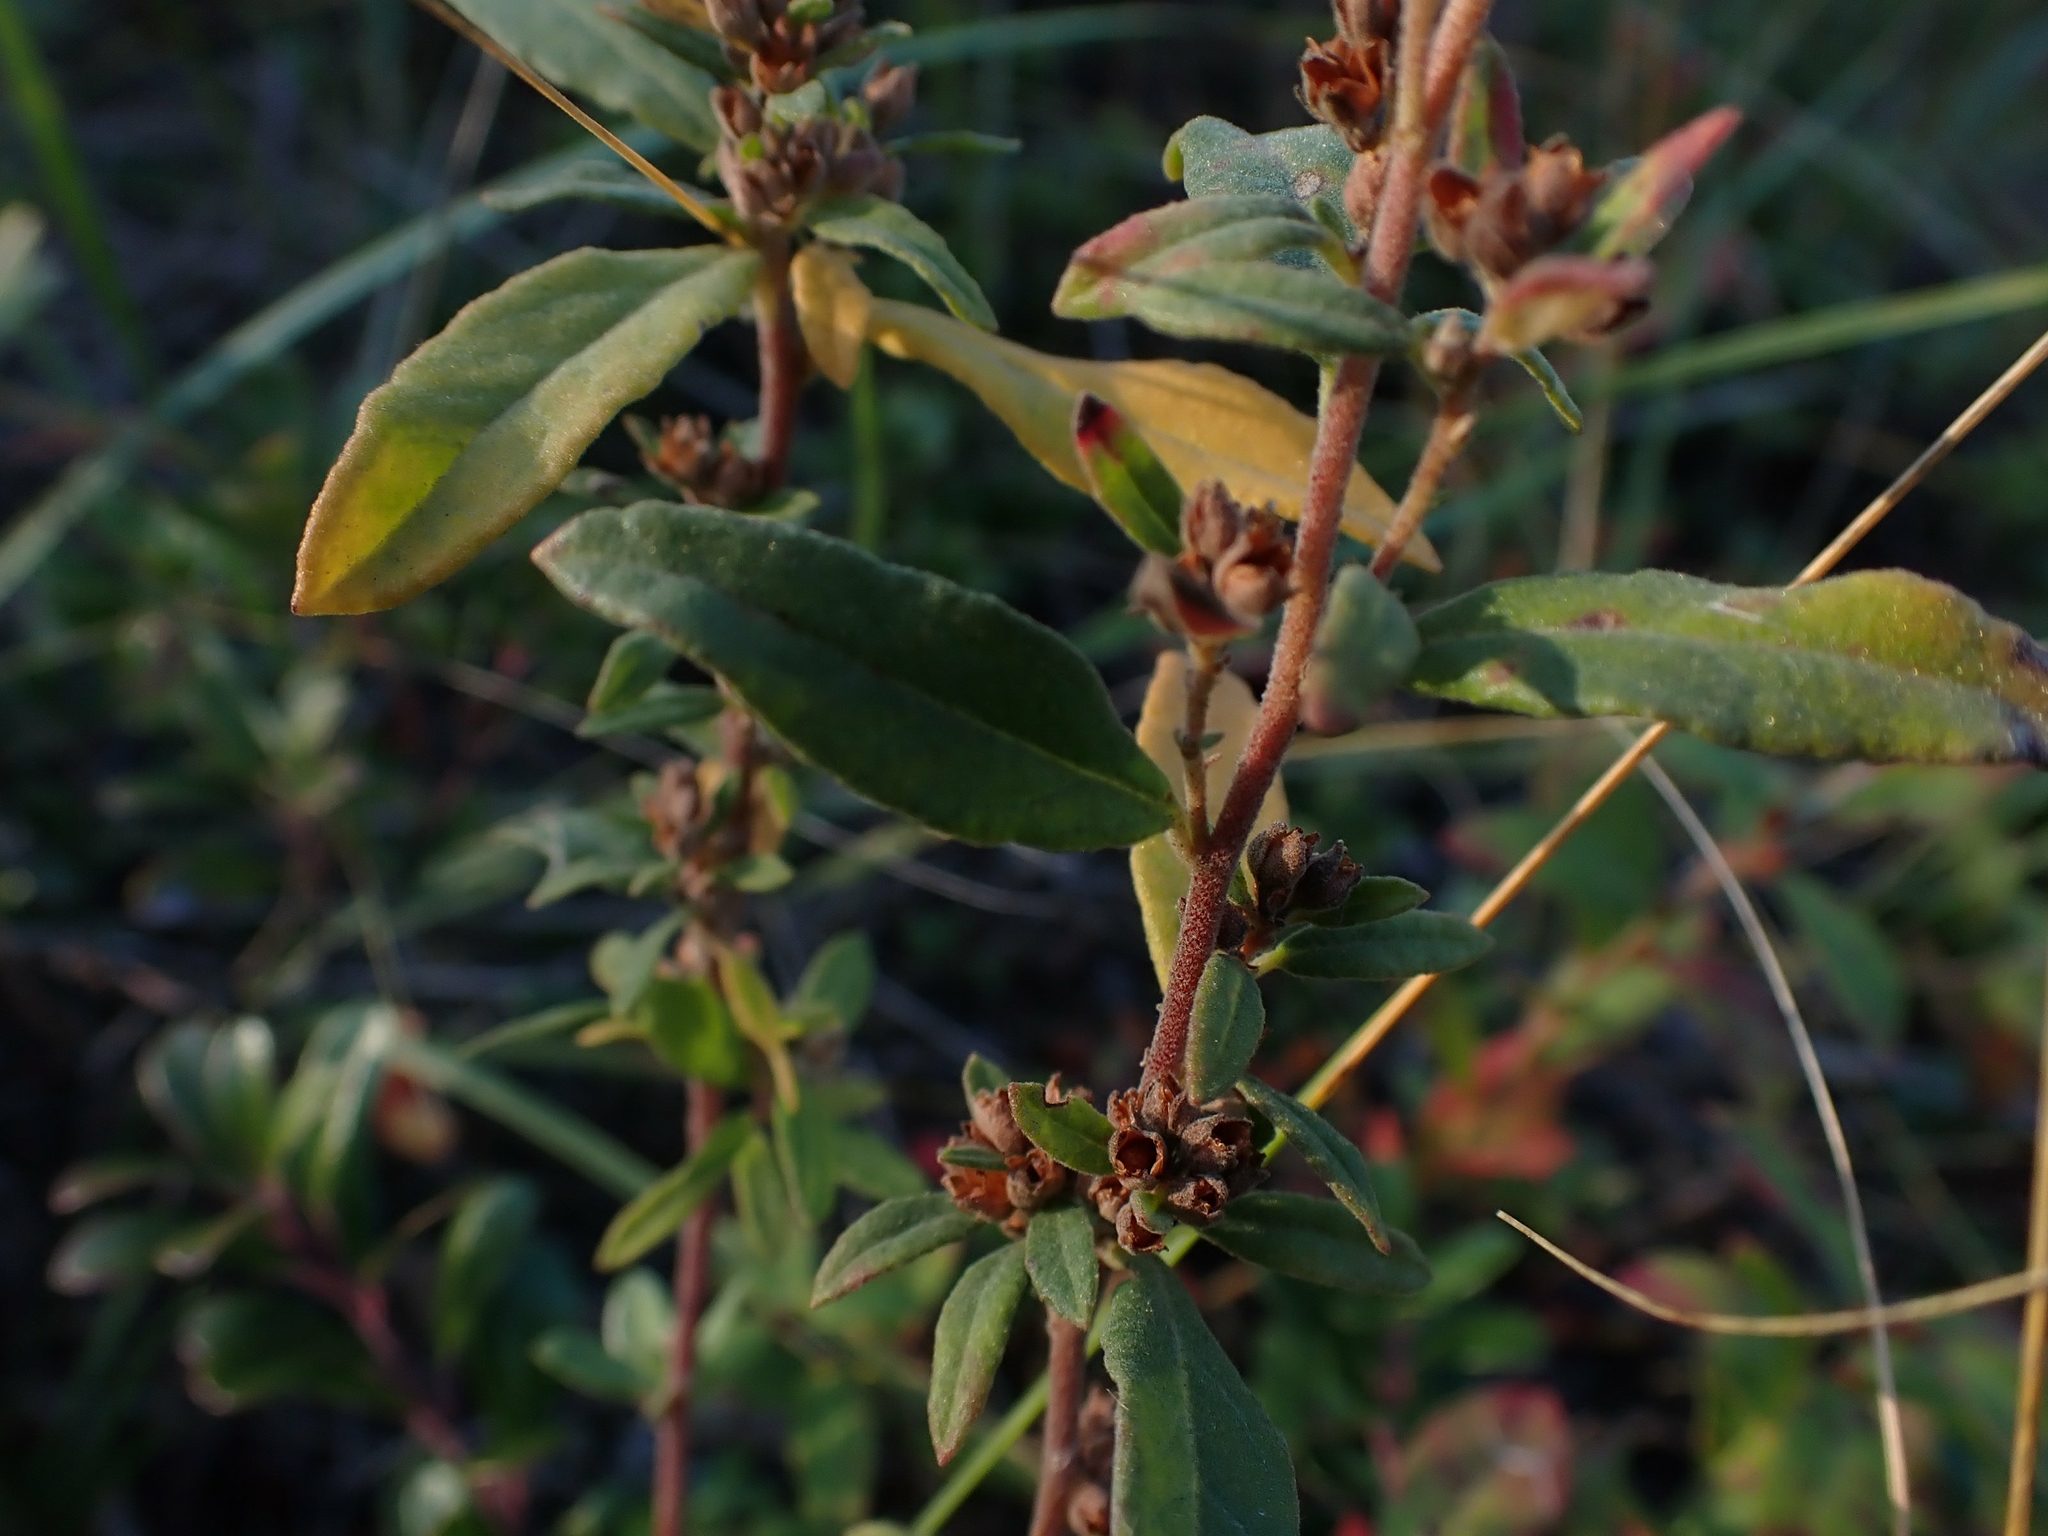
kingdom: Plantae
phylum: Tracheophyta
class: Magnoliopsida
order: Malvales
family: Cistaceae
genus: Crocanthemum
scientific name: Crocanthemum bicknellii
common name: Hoary frostweed
